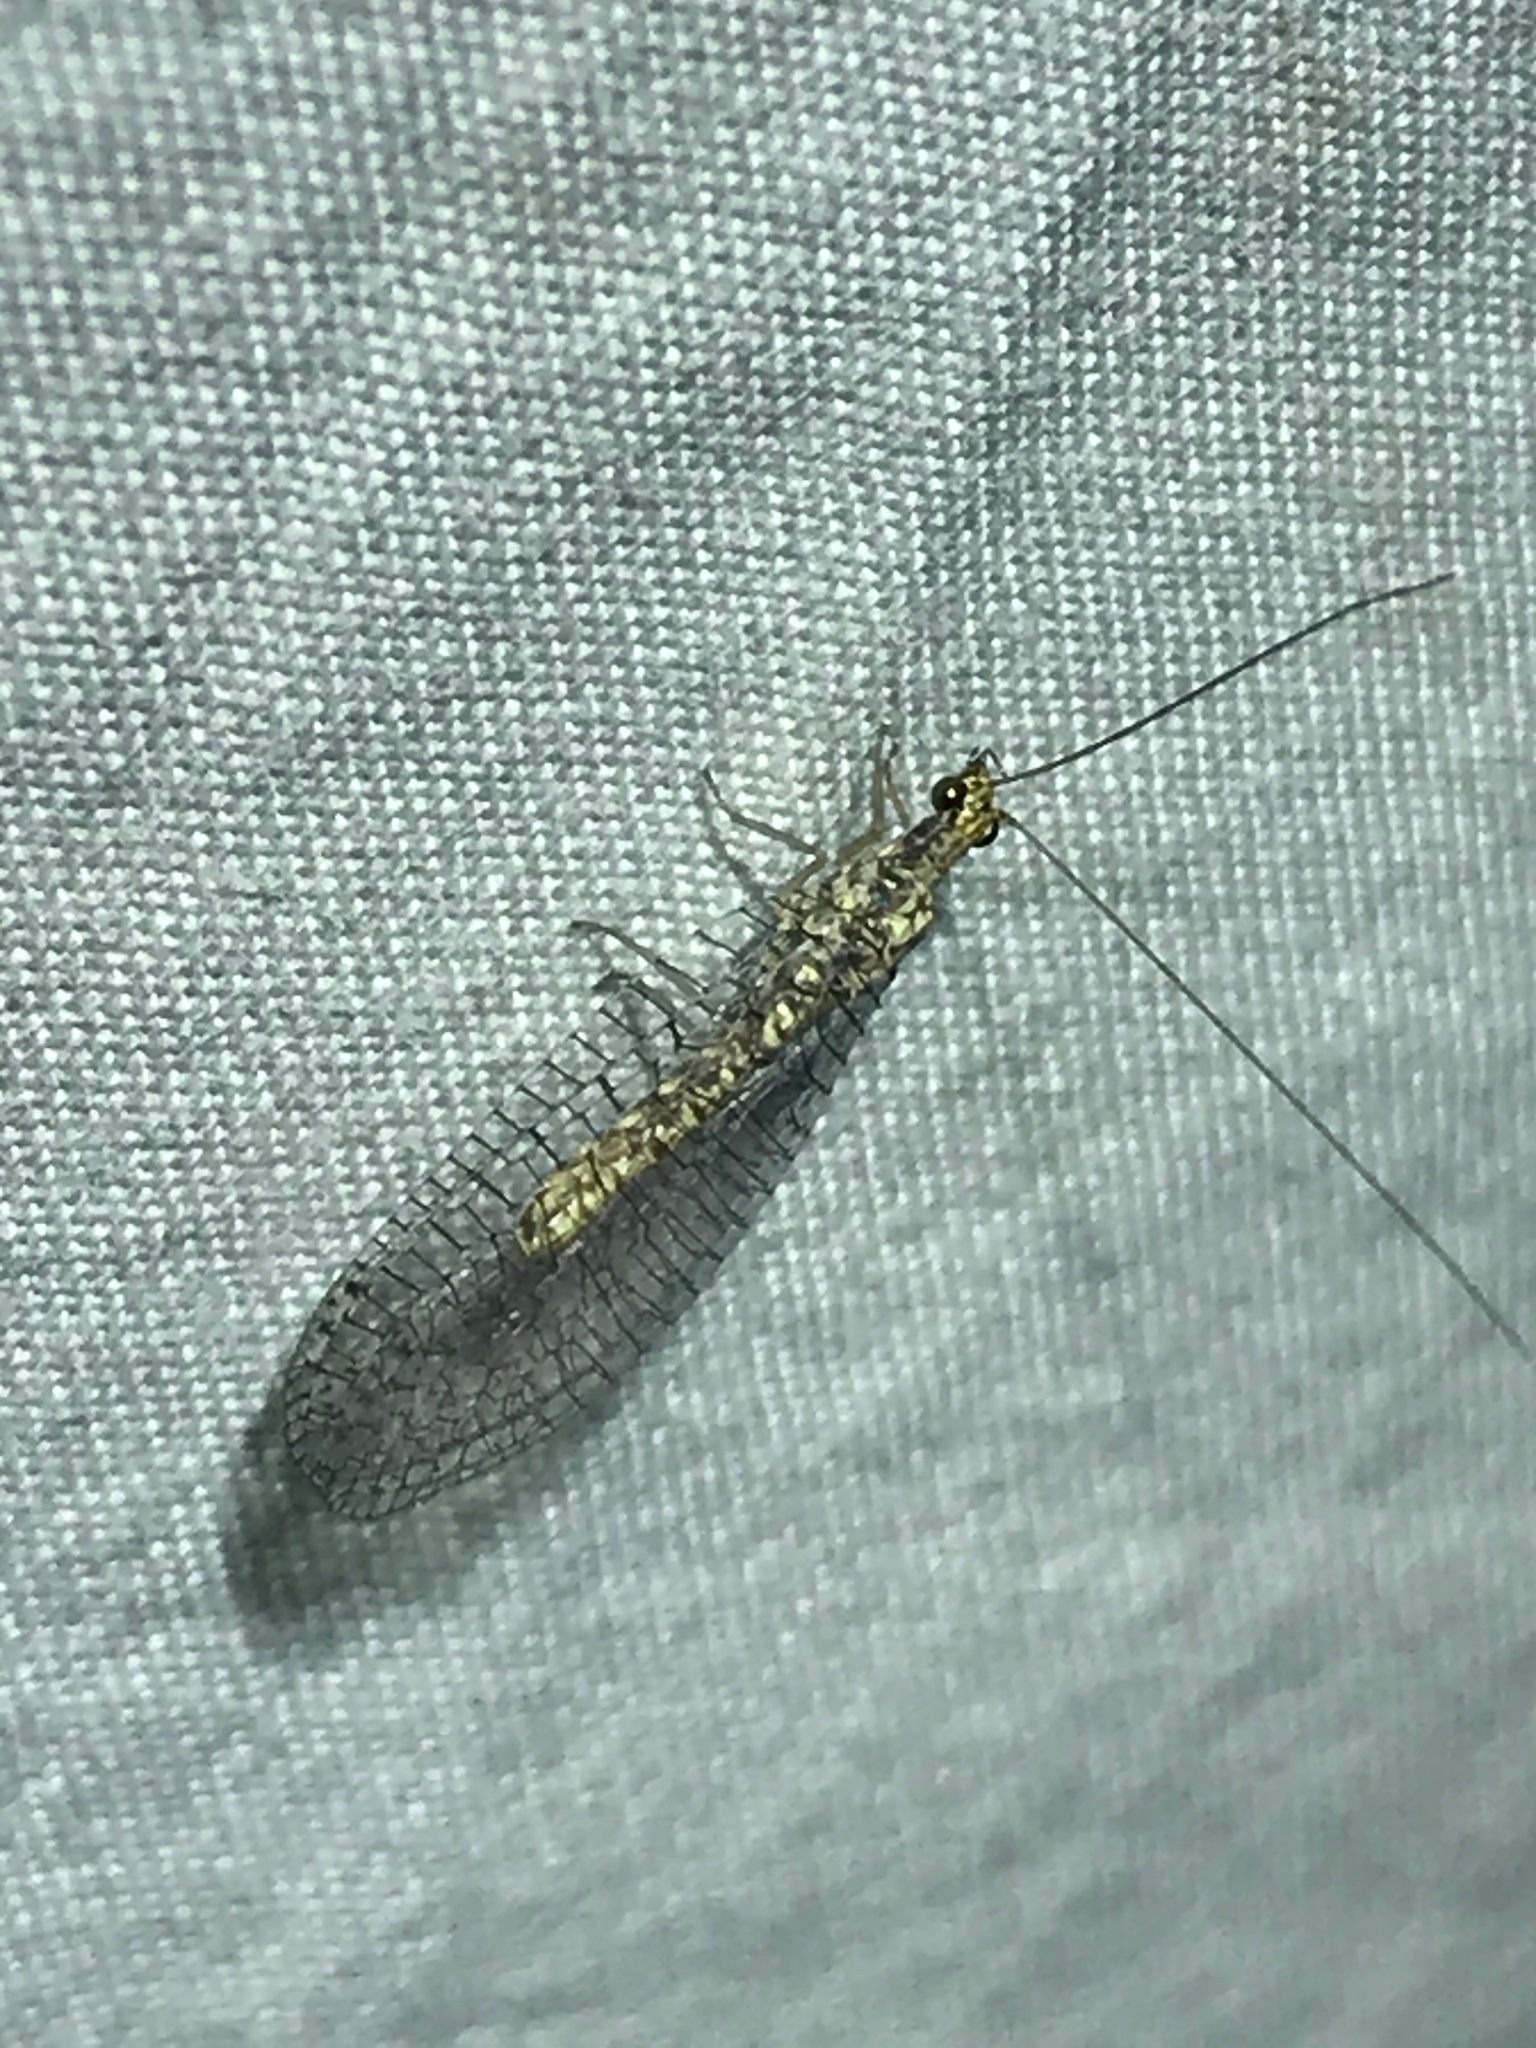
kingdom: Animalia
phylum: Arthropoda
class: Insecta
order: Neuroptera
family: Chrysopidae
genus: Eremochrysa
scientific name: Eremochrysa
